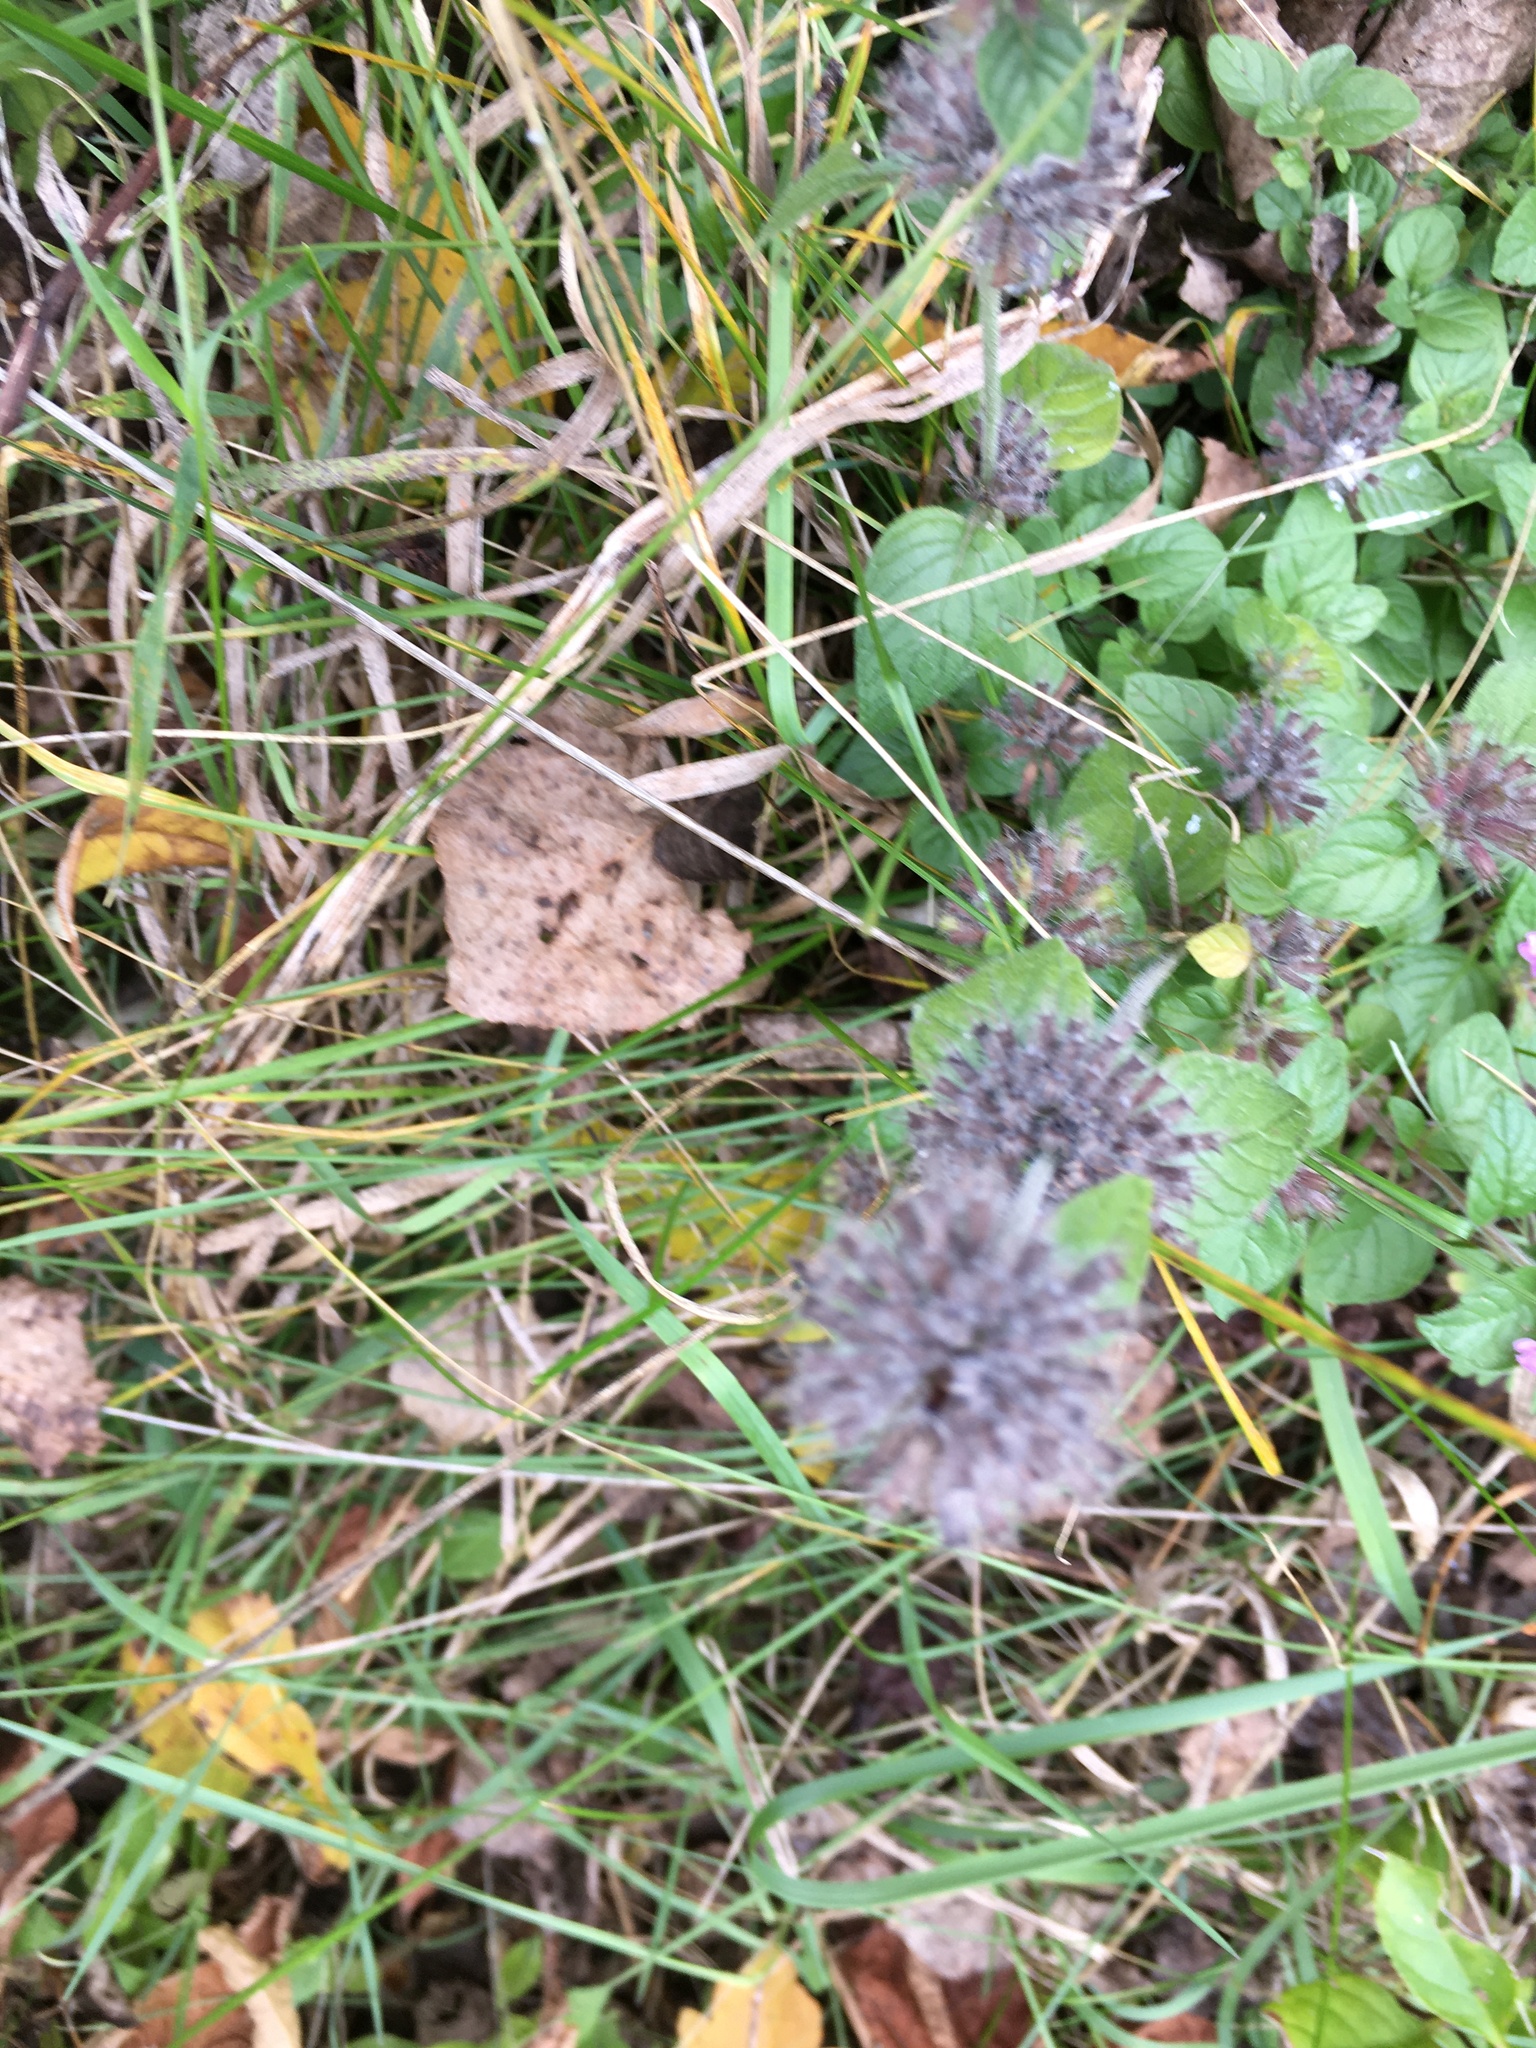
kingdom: Plantae
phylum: Tracheophyta
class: Magnoliopsida
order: Lamiales
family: Lamiaceae
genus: Clinopodium
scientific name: Clinopodium vulgare
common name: Wild basil
